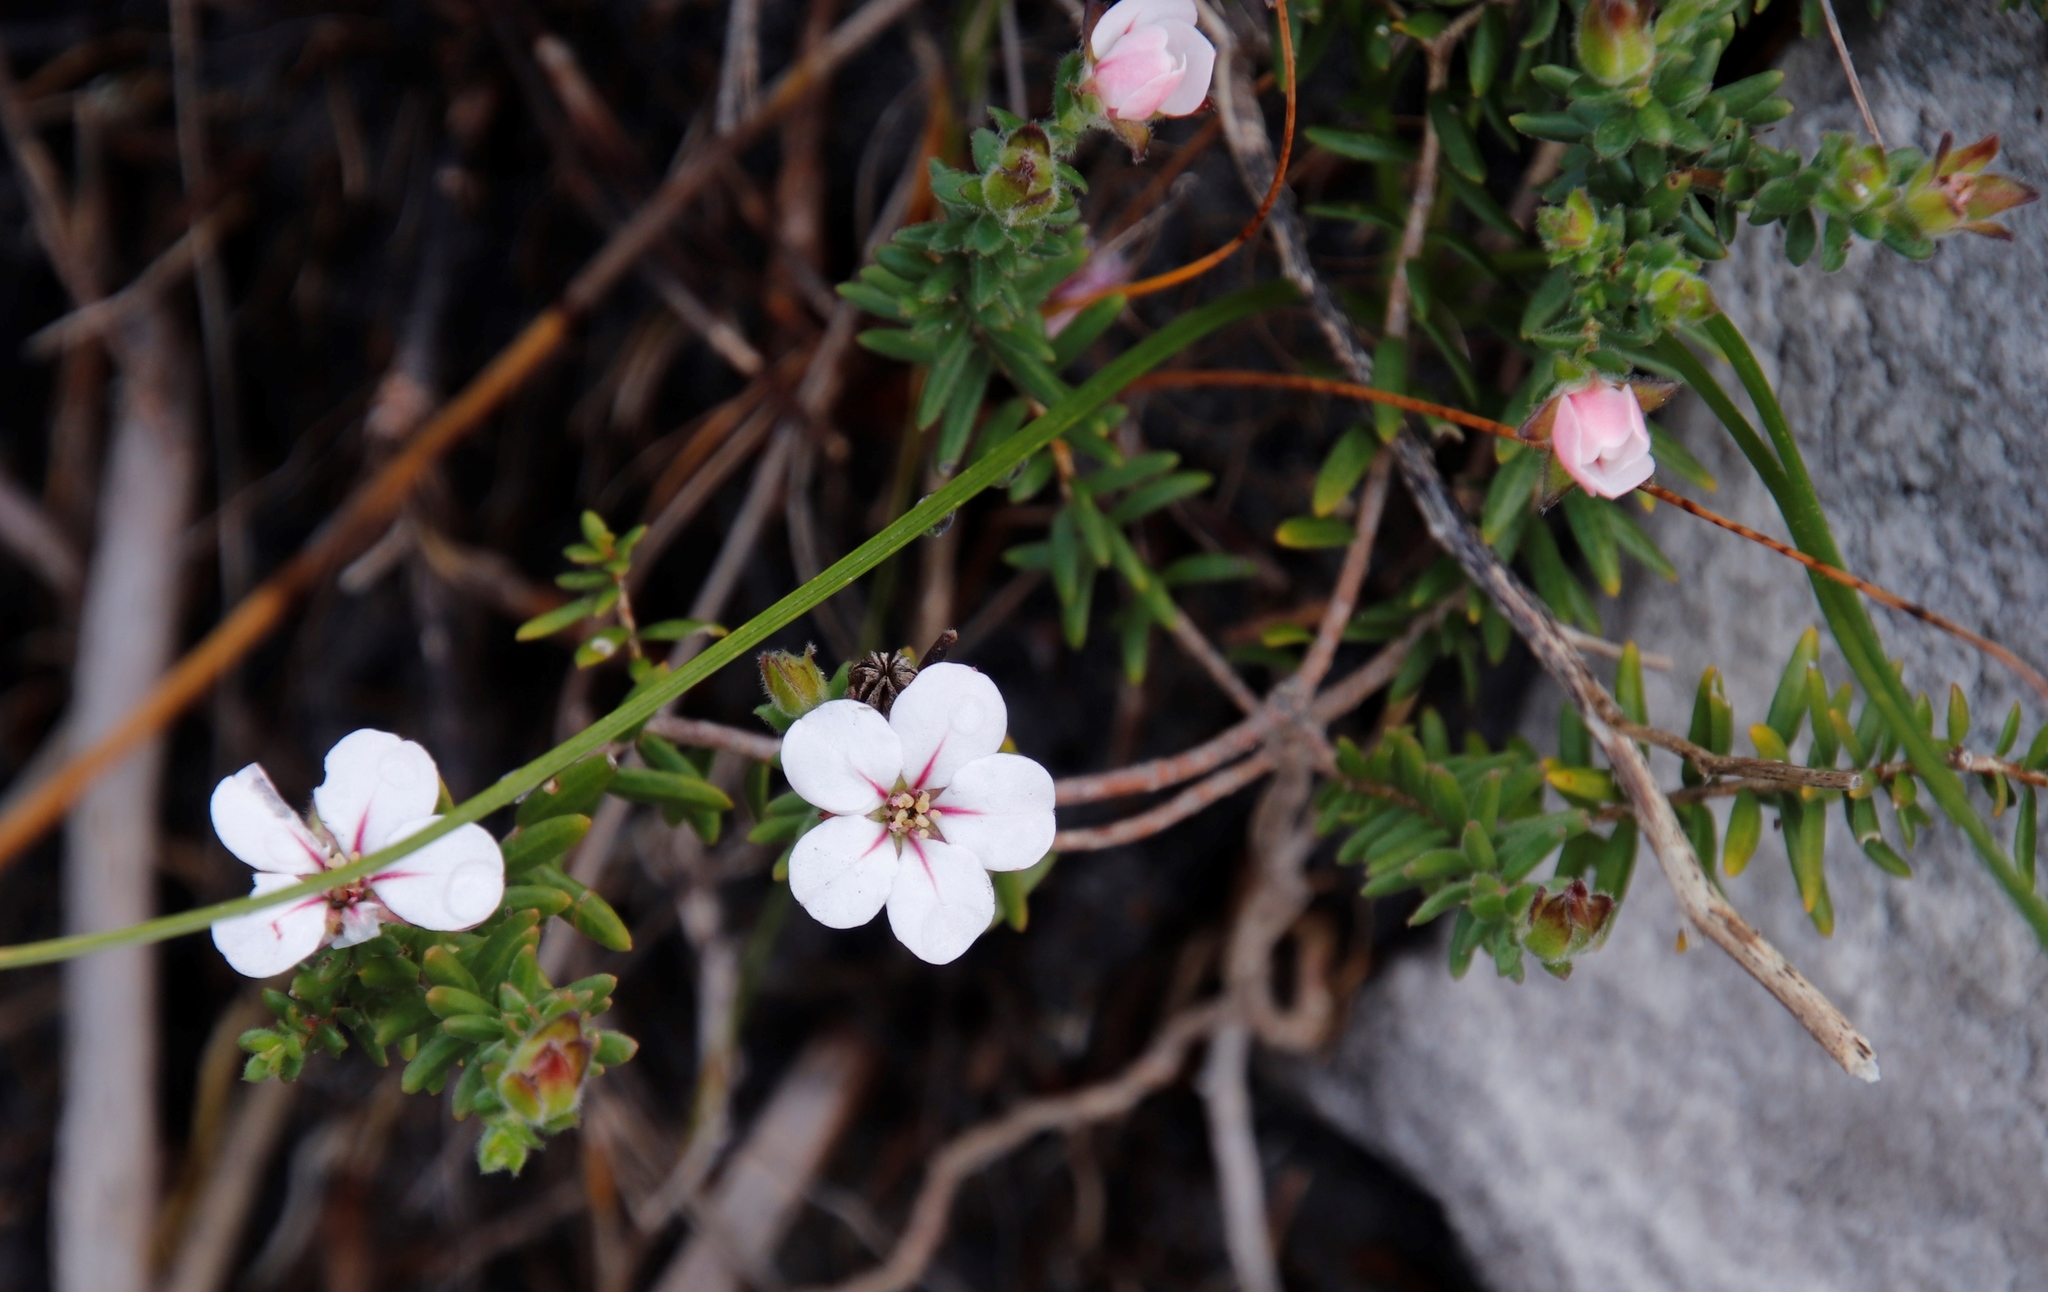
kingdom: Plantae
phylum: Tracheophyta
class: Magnoliopsida
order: Sapindales
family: Rutaceae
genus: Adenandra
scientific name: Adenandra uniflora
